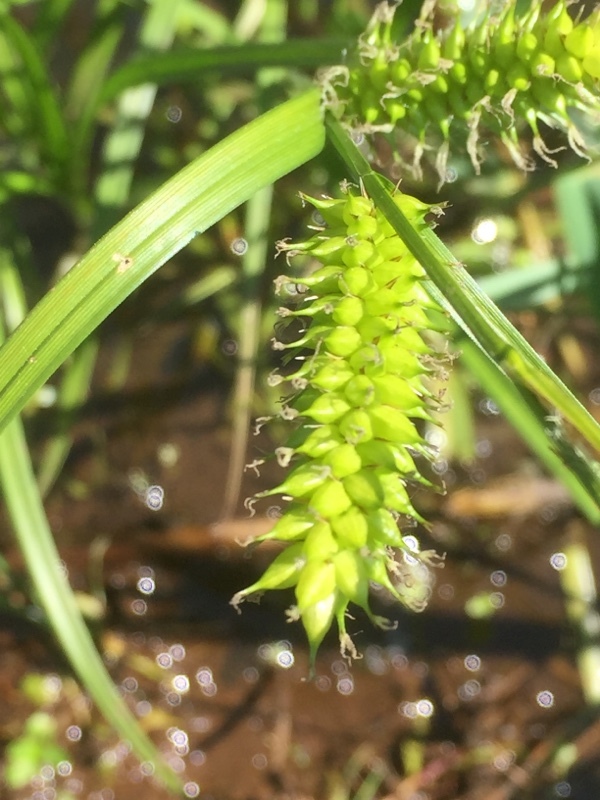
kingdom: Plantae
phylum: Tracheophyta
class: Liliopsida
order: Poales
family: Cyperaceae
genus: Carex
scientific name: Carex vesicaria
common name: Bladder-sedge
